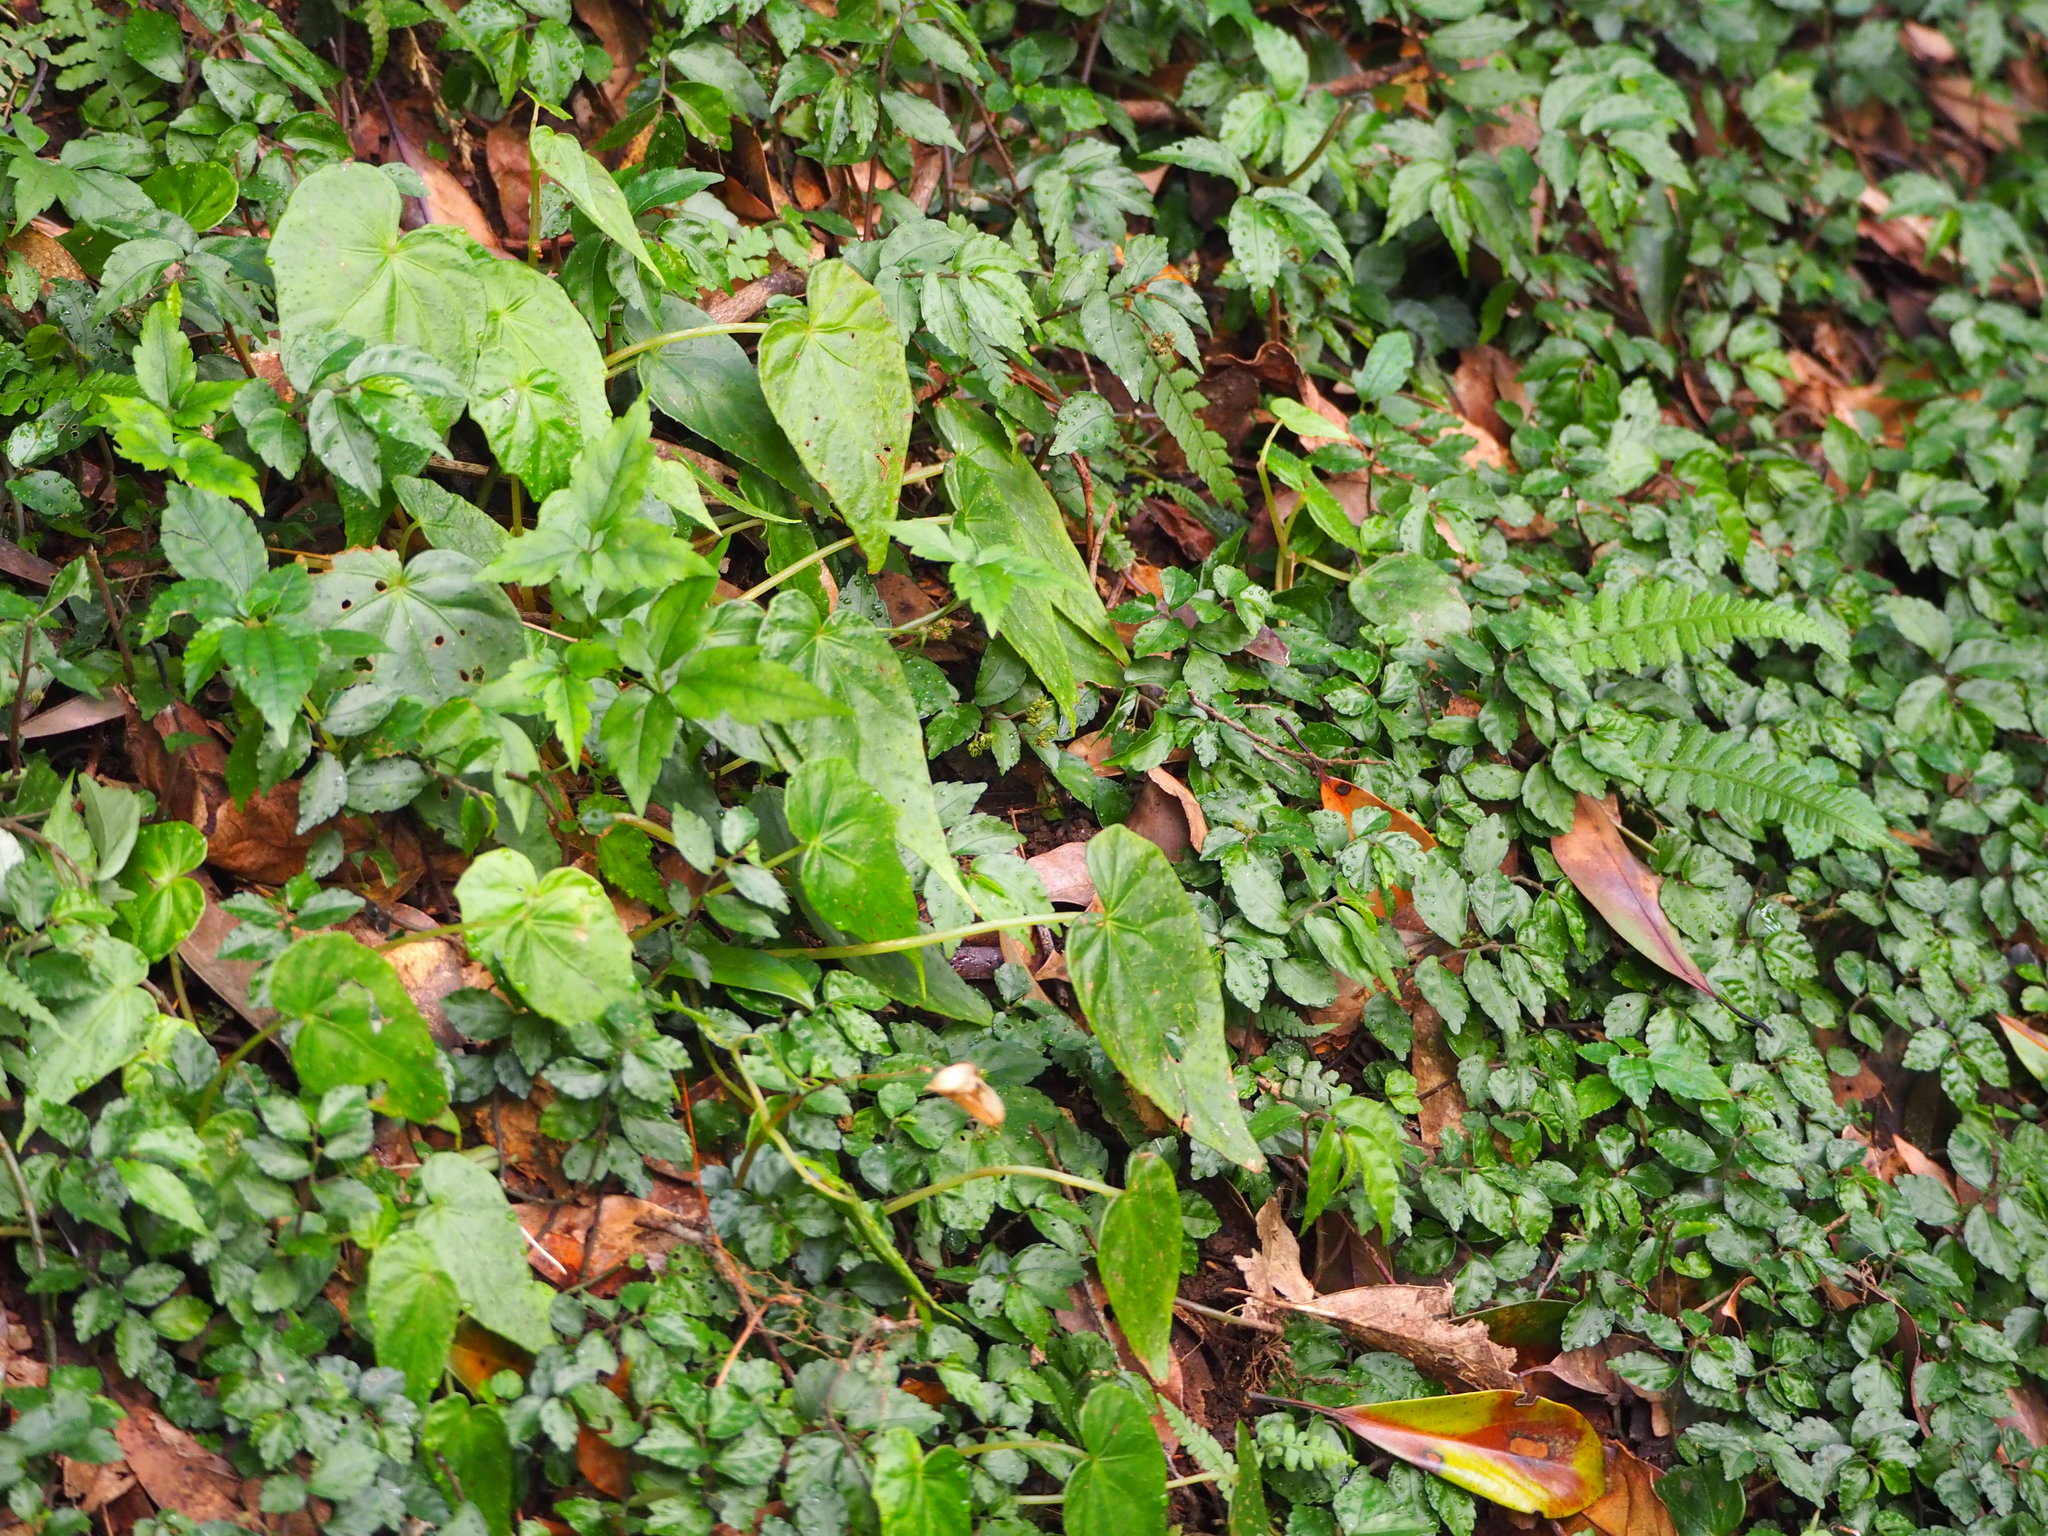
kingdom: Plantae
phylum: Tracheophyta
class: Magnoliopsida
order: Cucurbitales
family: Begoniaceae
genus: Begonia
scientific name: Begonia formosana
